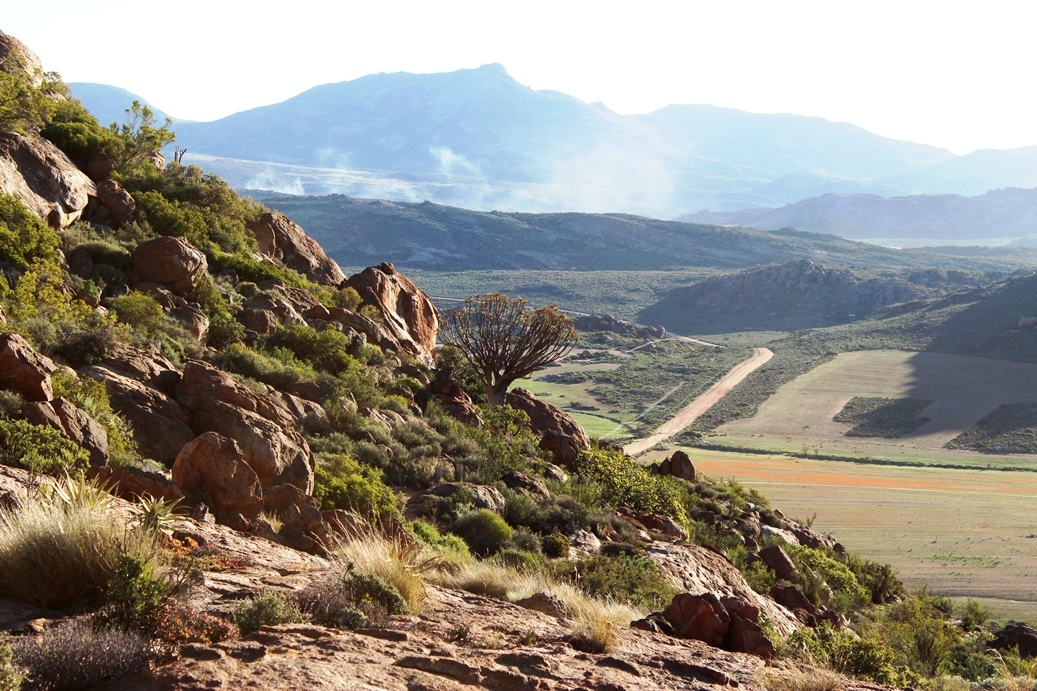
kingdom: Plantae
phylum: Tracheophyta
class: Liliopsida
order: Asparagales
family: Asphodelaceae
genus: Aloidendron
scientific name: Aloidendron dichotomum
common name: Quiver tree
